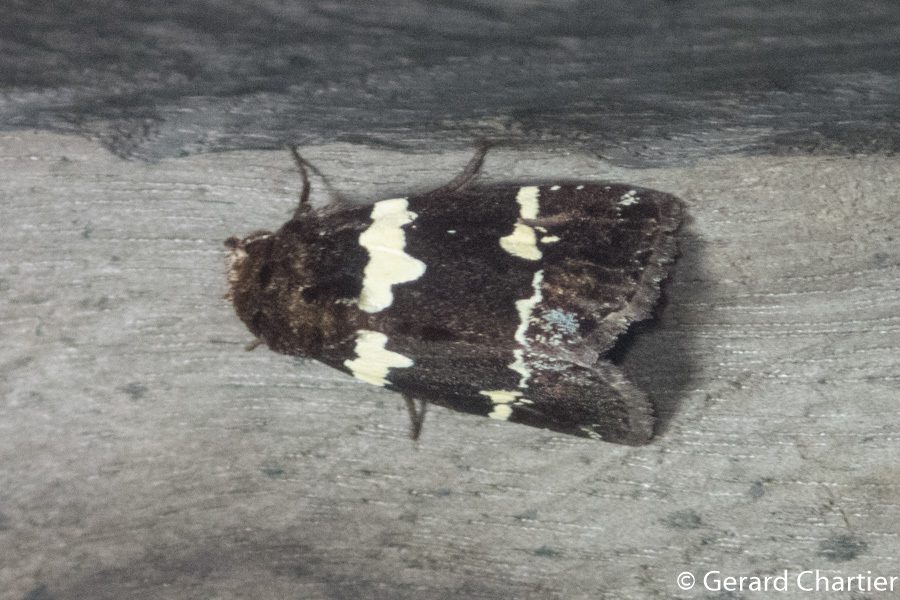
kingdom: Animalia
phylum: Arthropoda
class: Insecta
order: Lepidoptera
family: Noctuidae
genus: Borbotana
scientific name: Borbotana nivifascia
